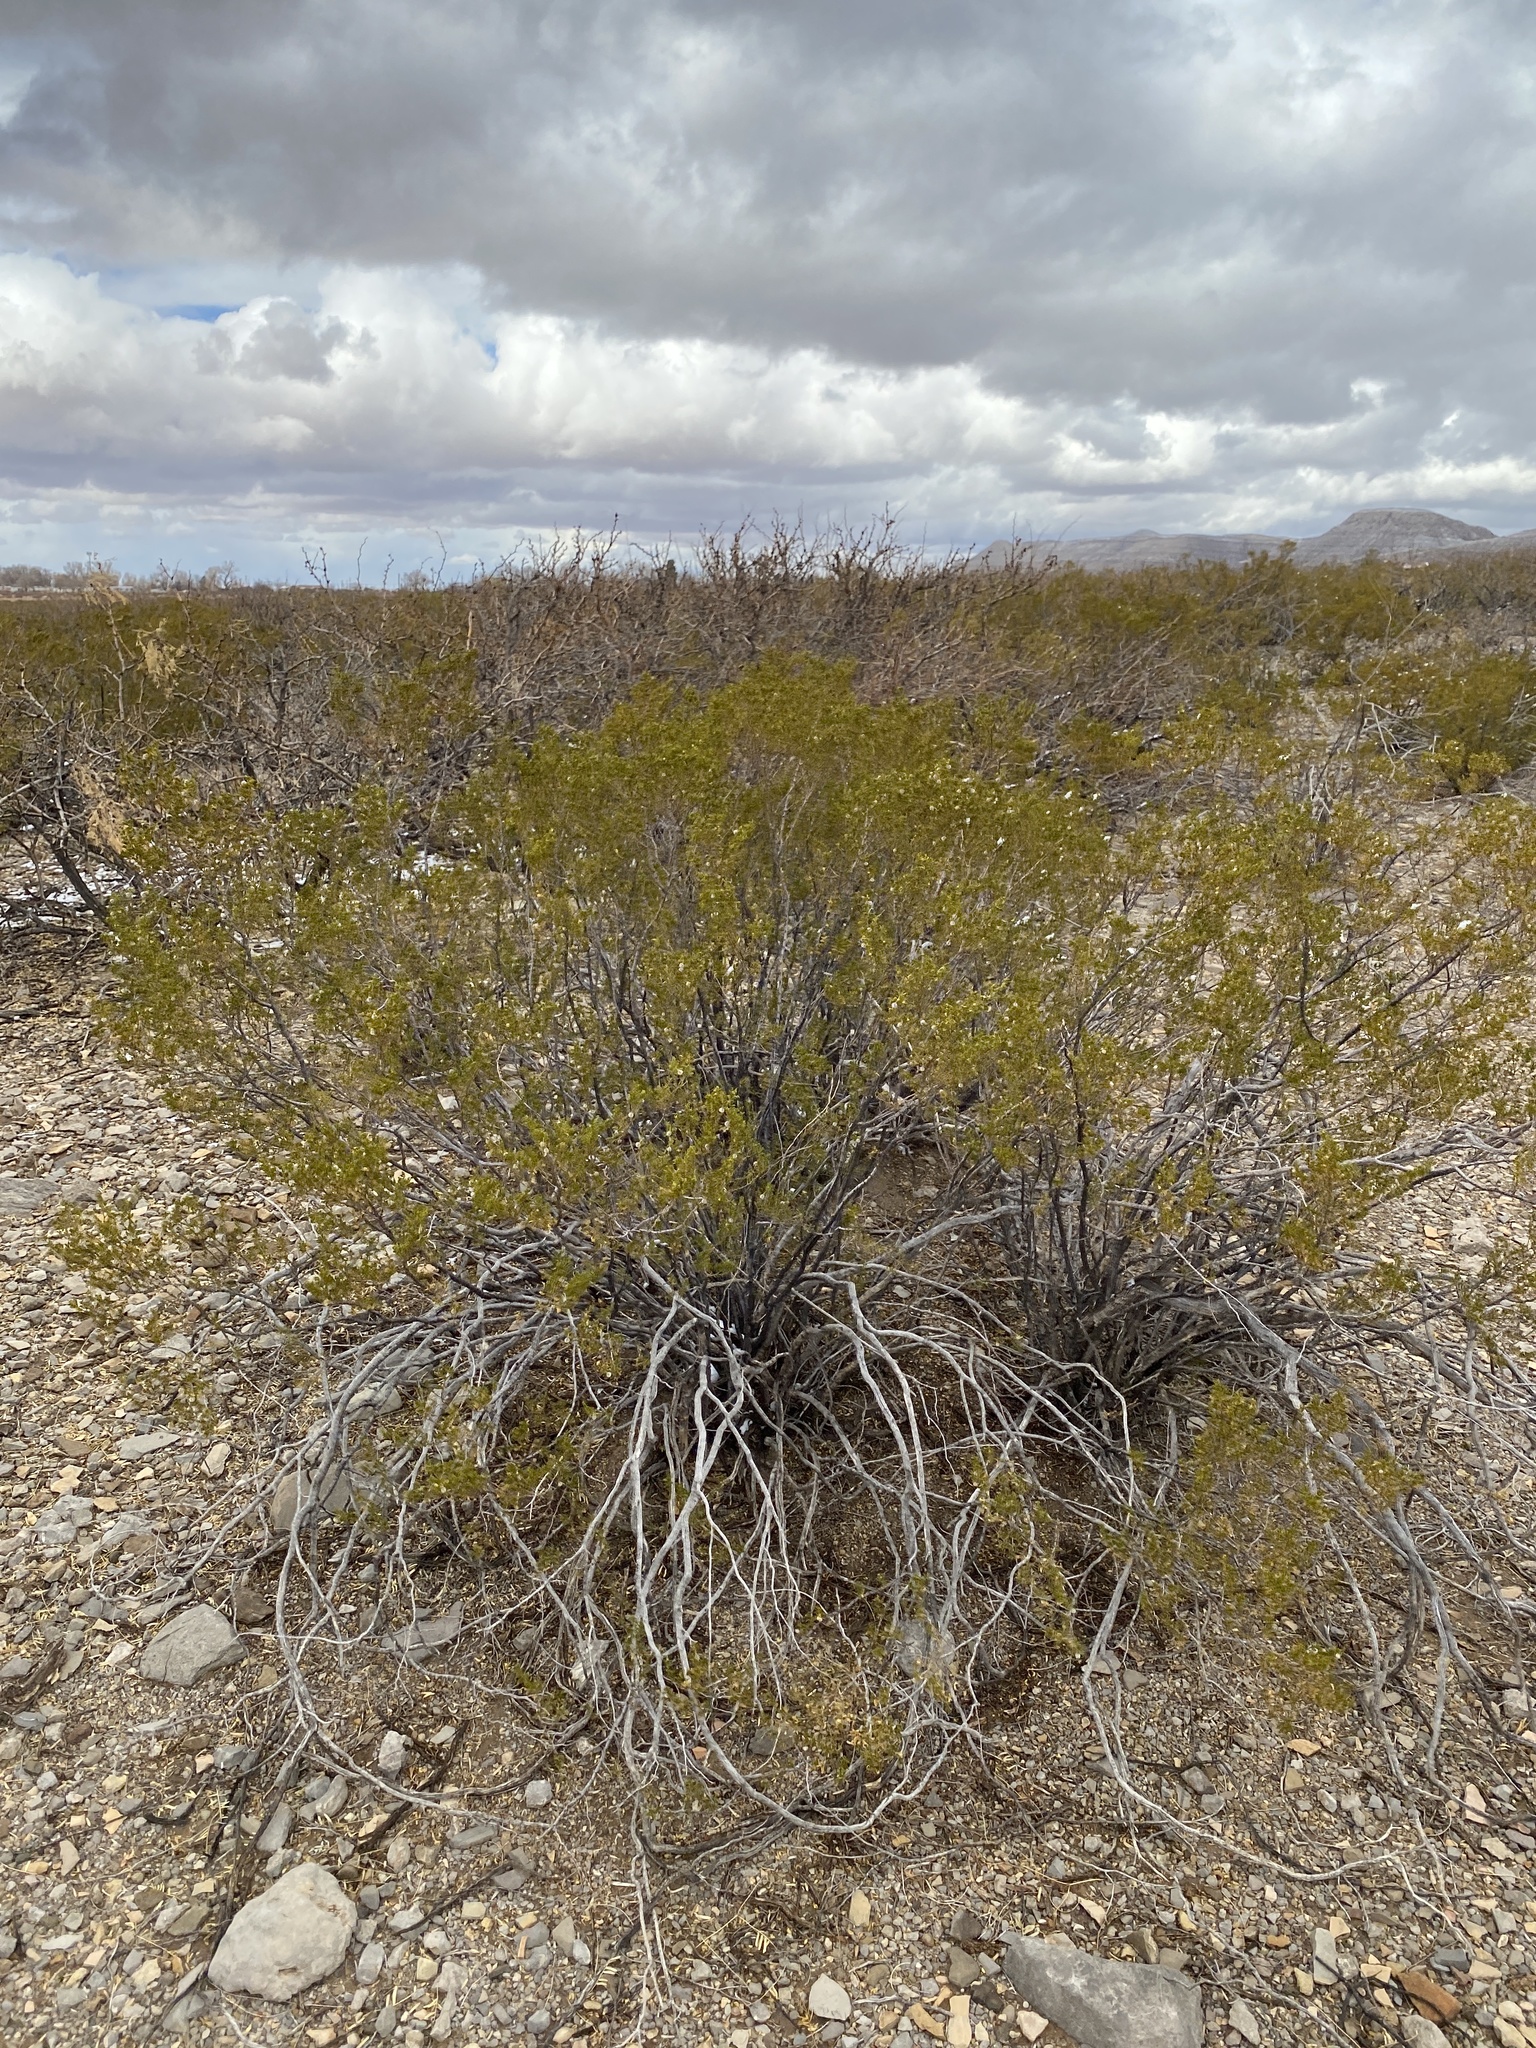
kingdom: Plantae
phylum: Tracheophyta
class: Magnoliopsida
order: Zygophyllales
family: Zygophyllaceae
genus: Larrea
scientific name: Larrea tridentata
